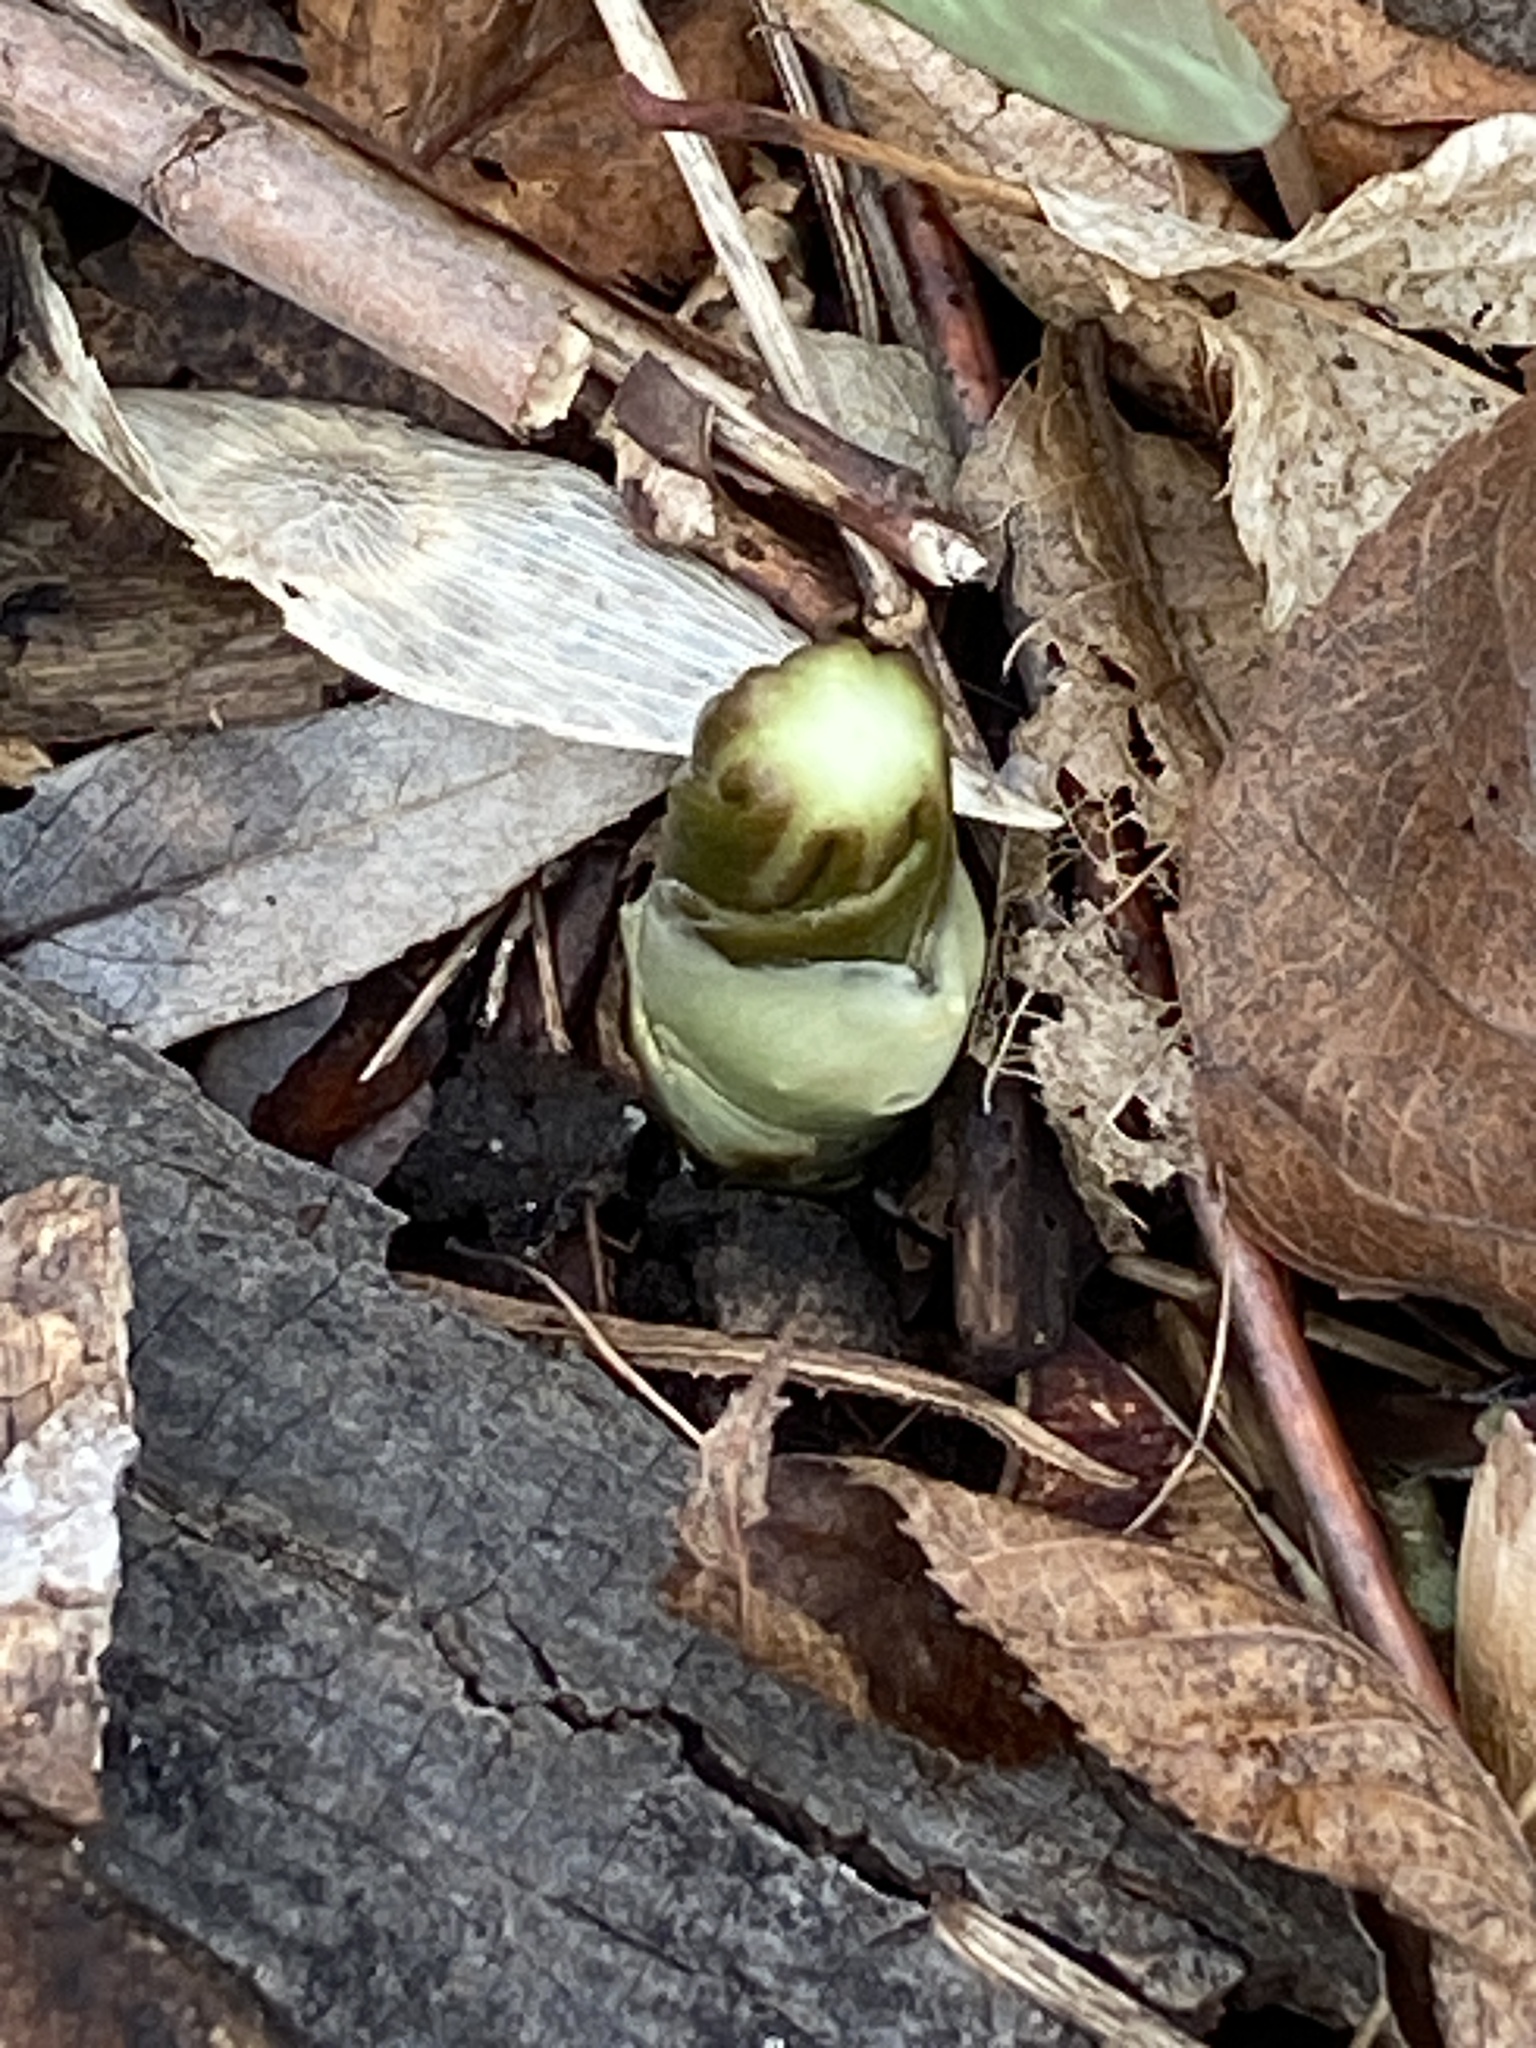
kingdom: Plantae
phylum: Tracheophyta
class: Magnoliopsida
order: Ranunculales
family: Berberidaceae
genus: Podophyllum
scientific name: Podophyllum peltatum
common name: Wild mandrake
